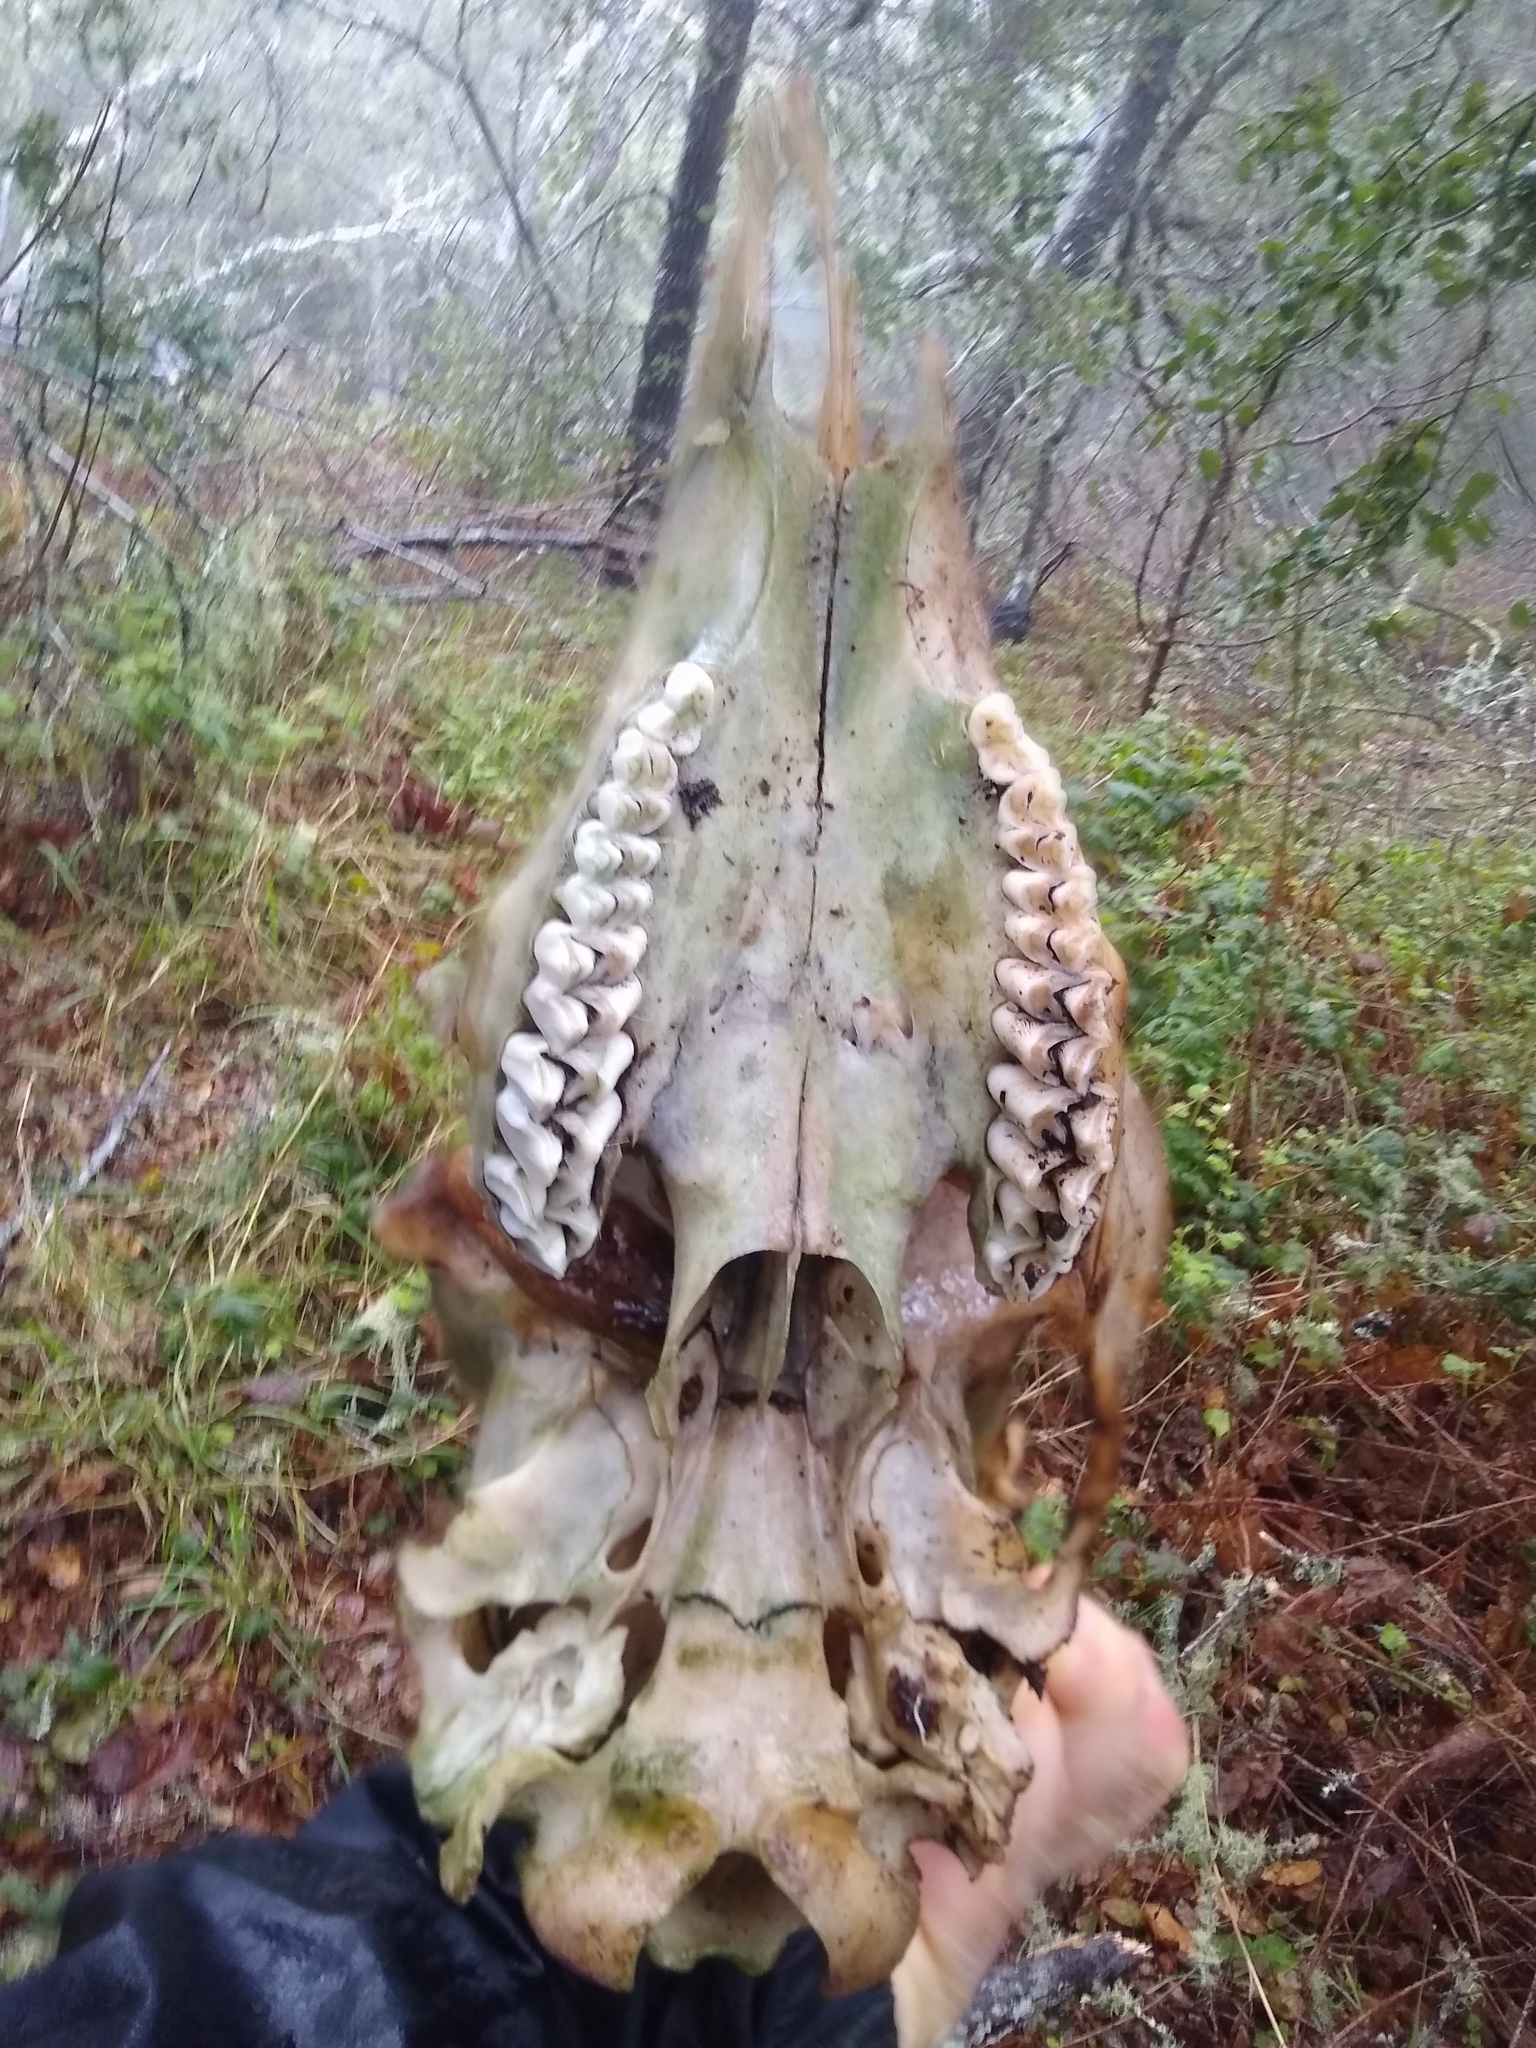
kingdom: Animalia
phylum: Chordata
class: Mammalia
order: Artiodactyla
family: Cervidae
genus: Odocoileus
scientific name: Odocoileus hemionus
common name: Mule deer
